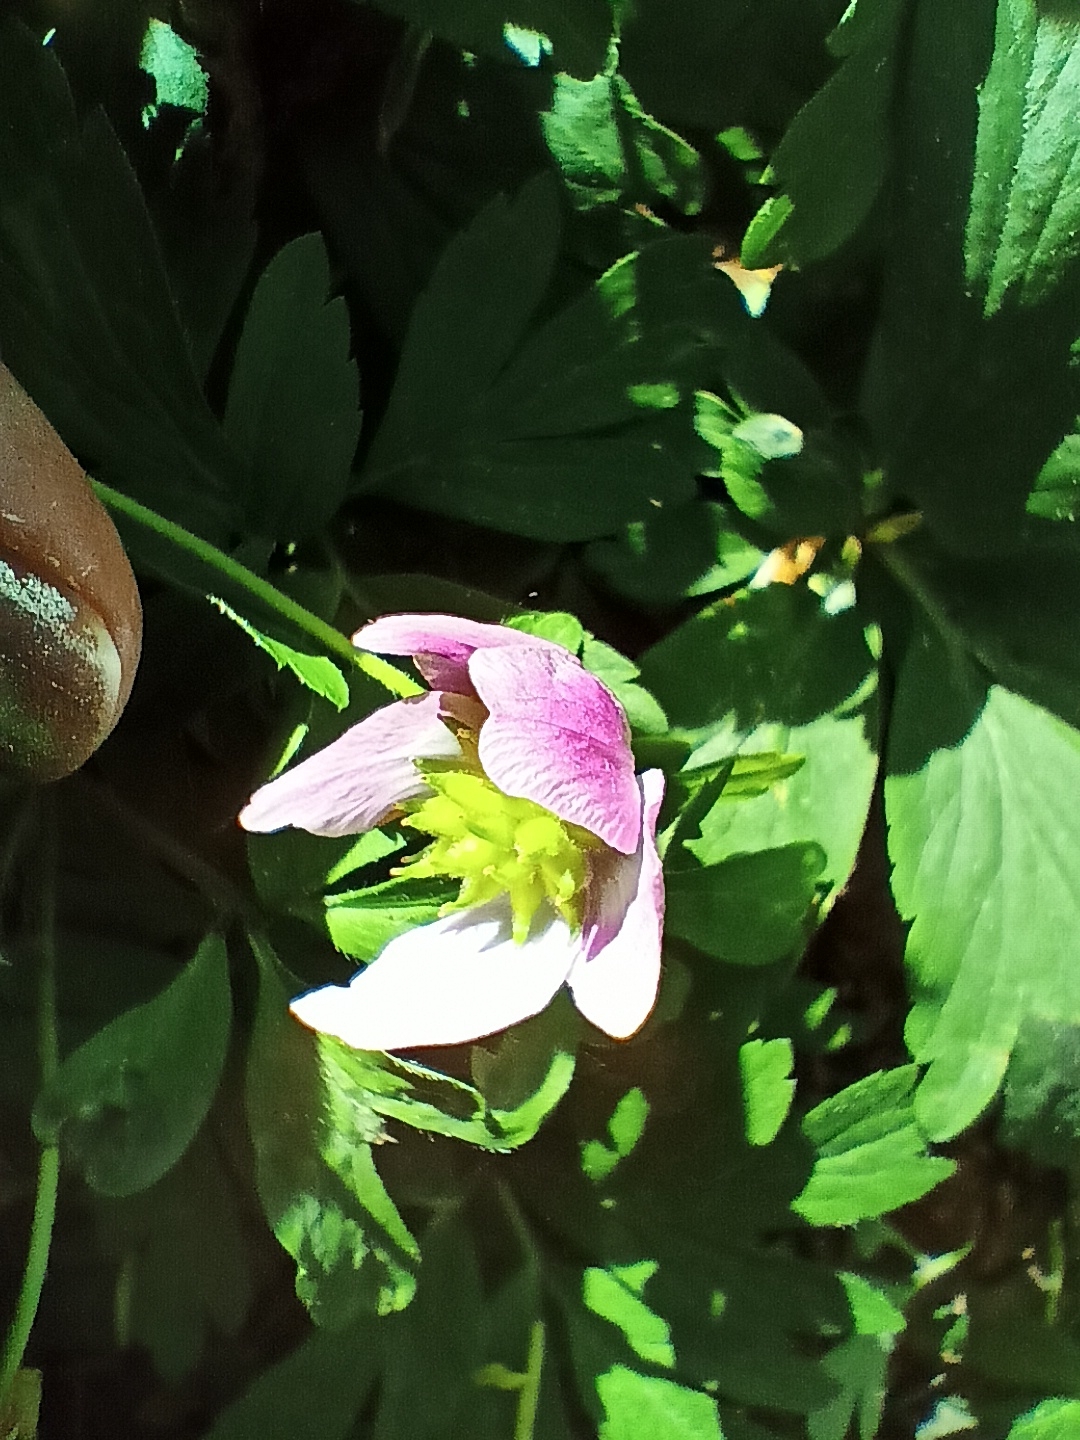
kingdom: Plantae
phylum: Tracheophyta
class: Magnoliopsida
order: Ranunculales
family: Ranunculaceae
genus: Anemone
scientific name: Anemone nemorosa
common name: Wood anemone
